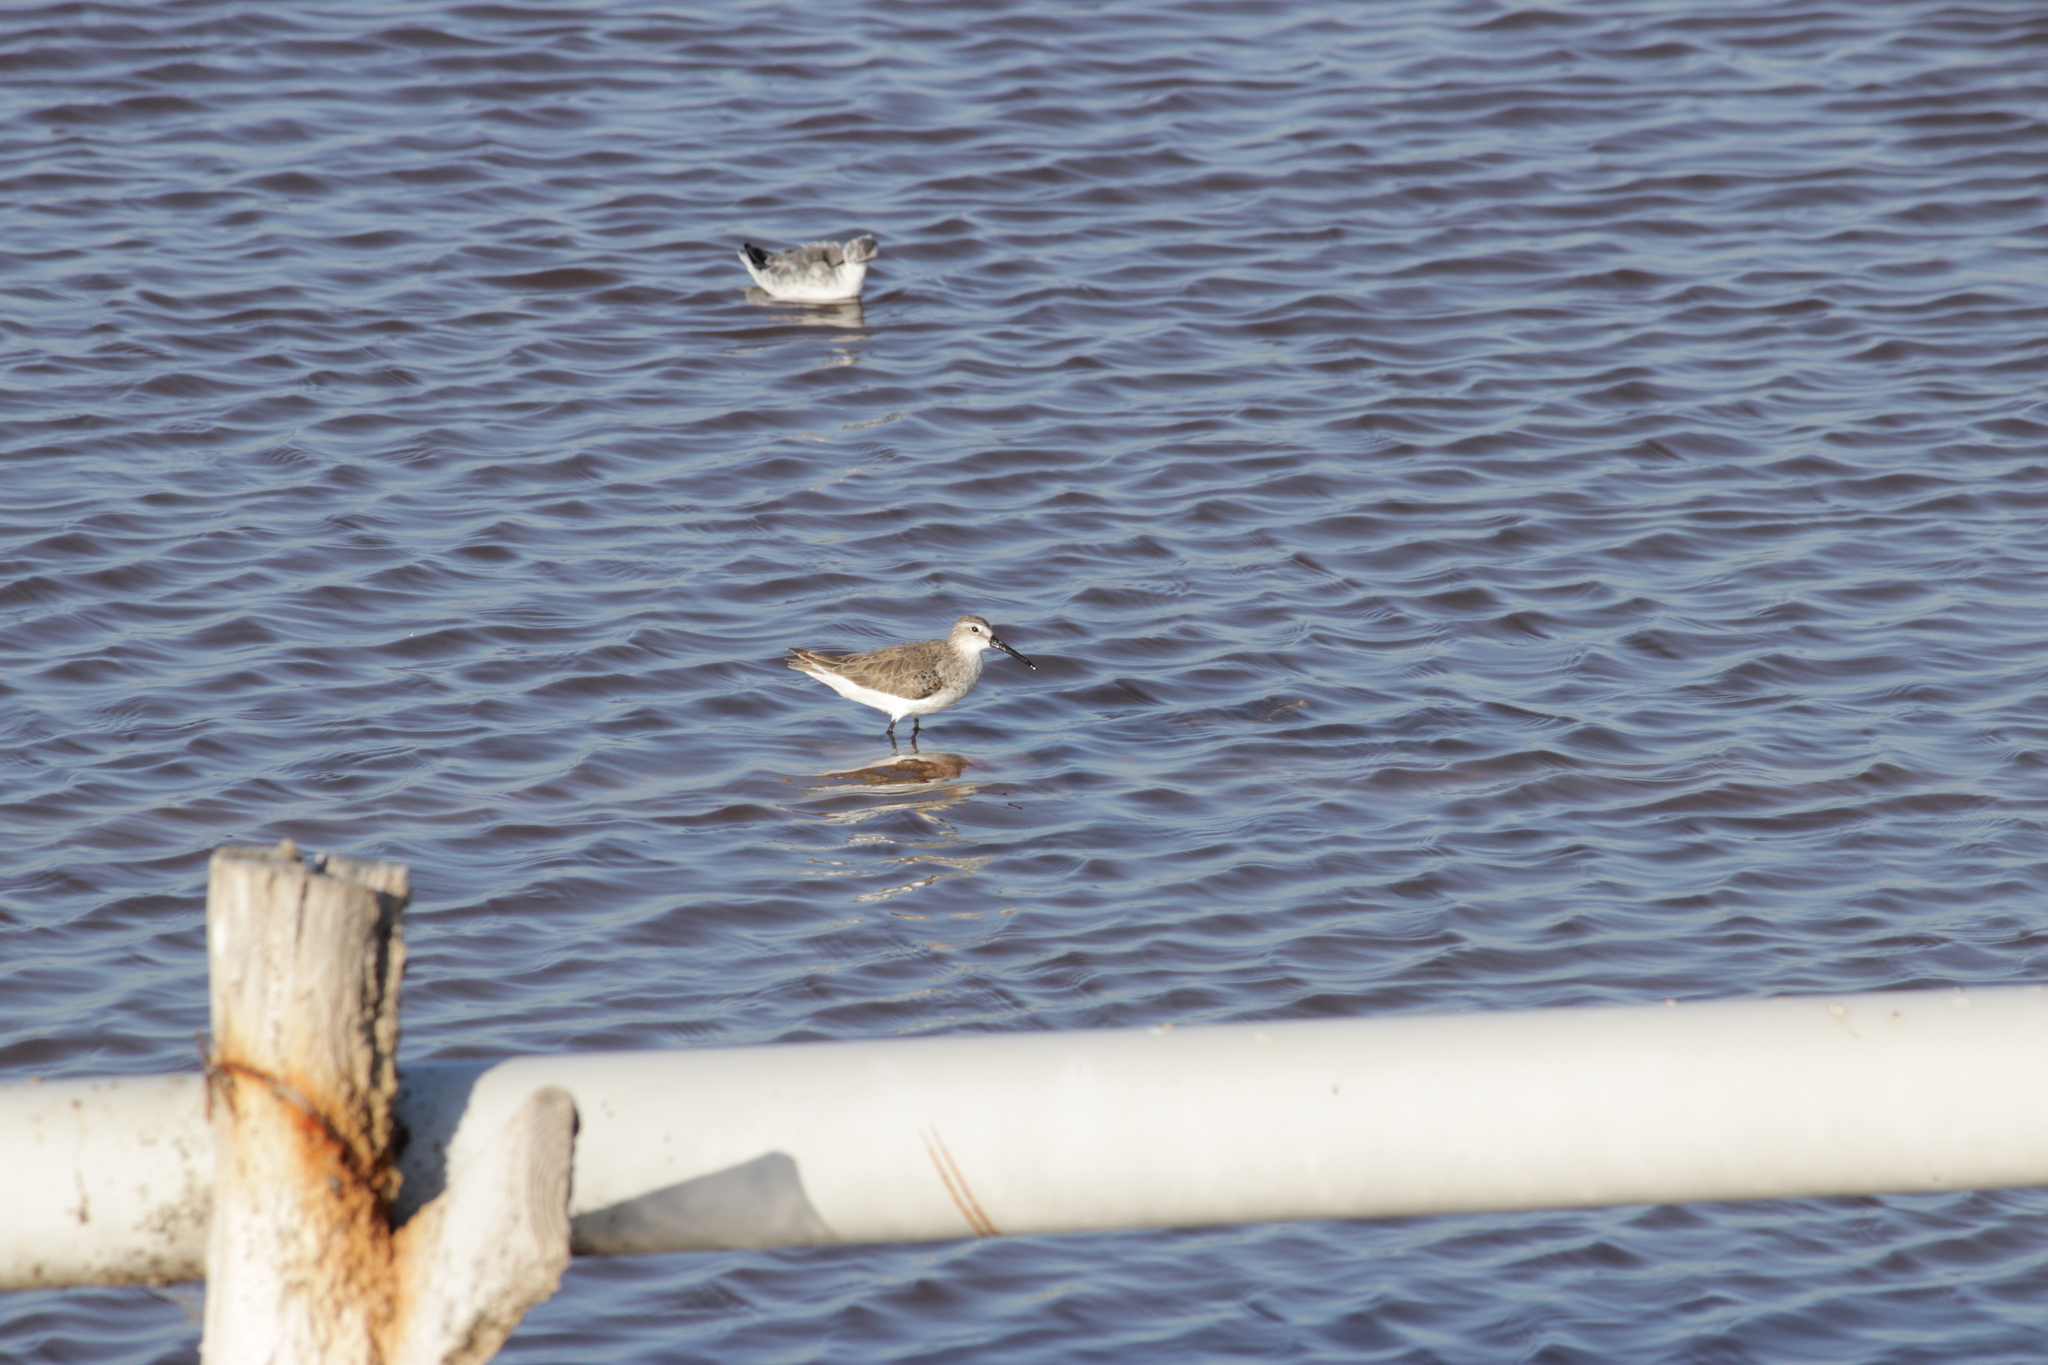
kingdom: Animalia
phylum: Chordata
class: Aves
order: Charadriiformes
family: Scolopacidae
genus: Calidris
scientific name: Calidris ferruginea
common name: Curlew sandpiper
